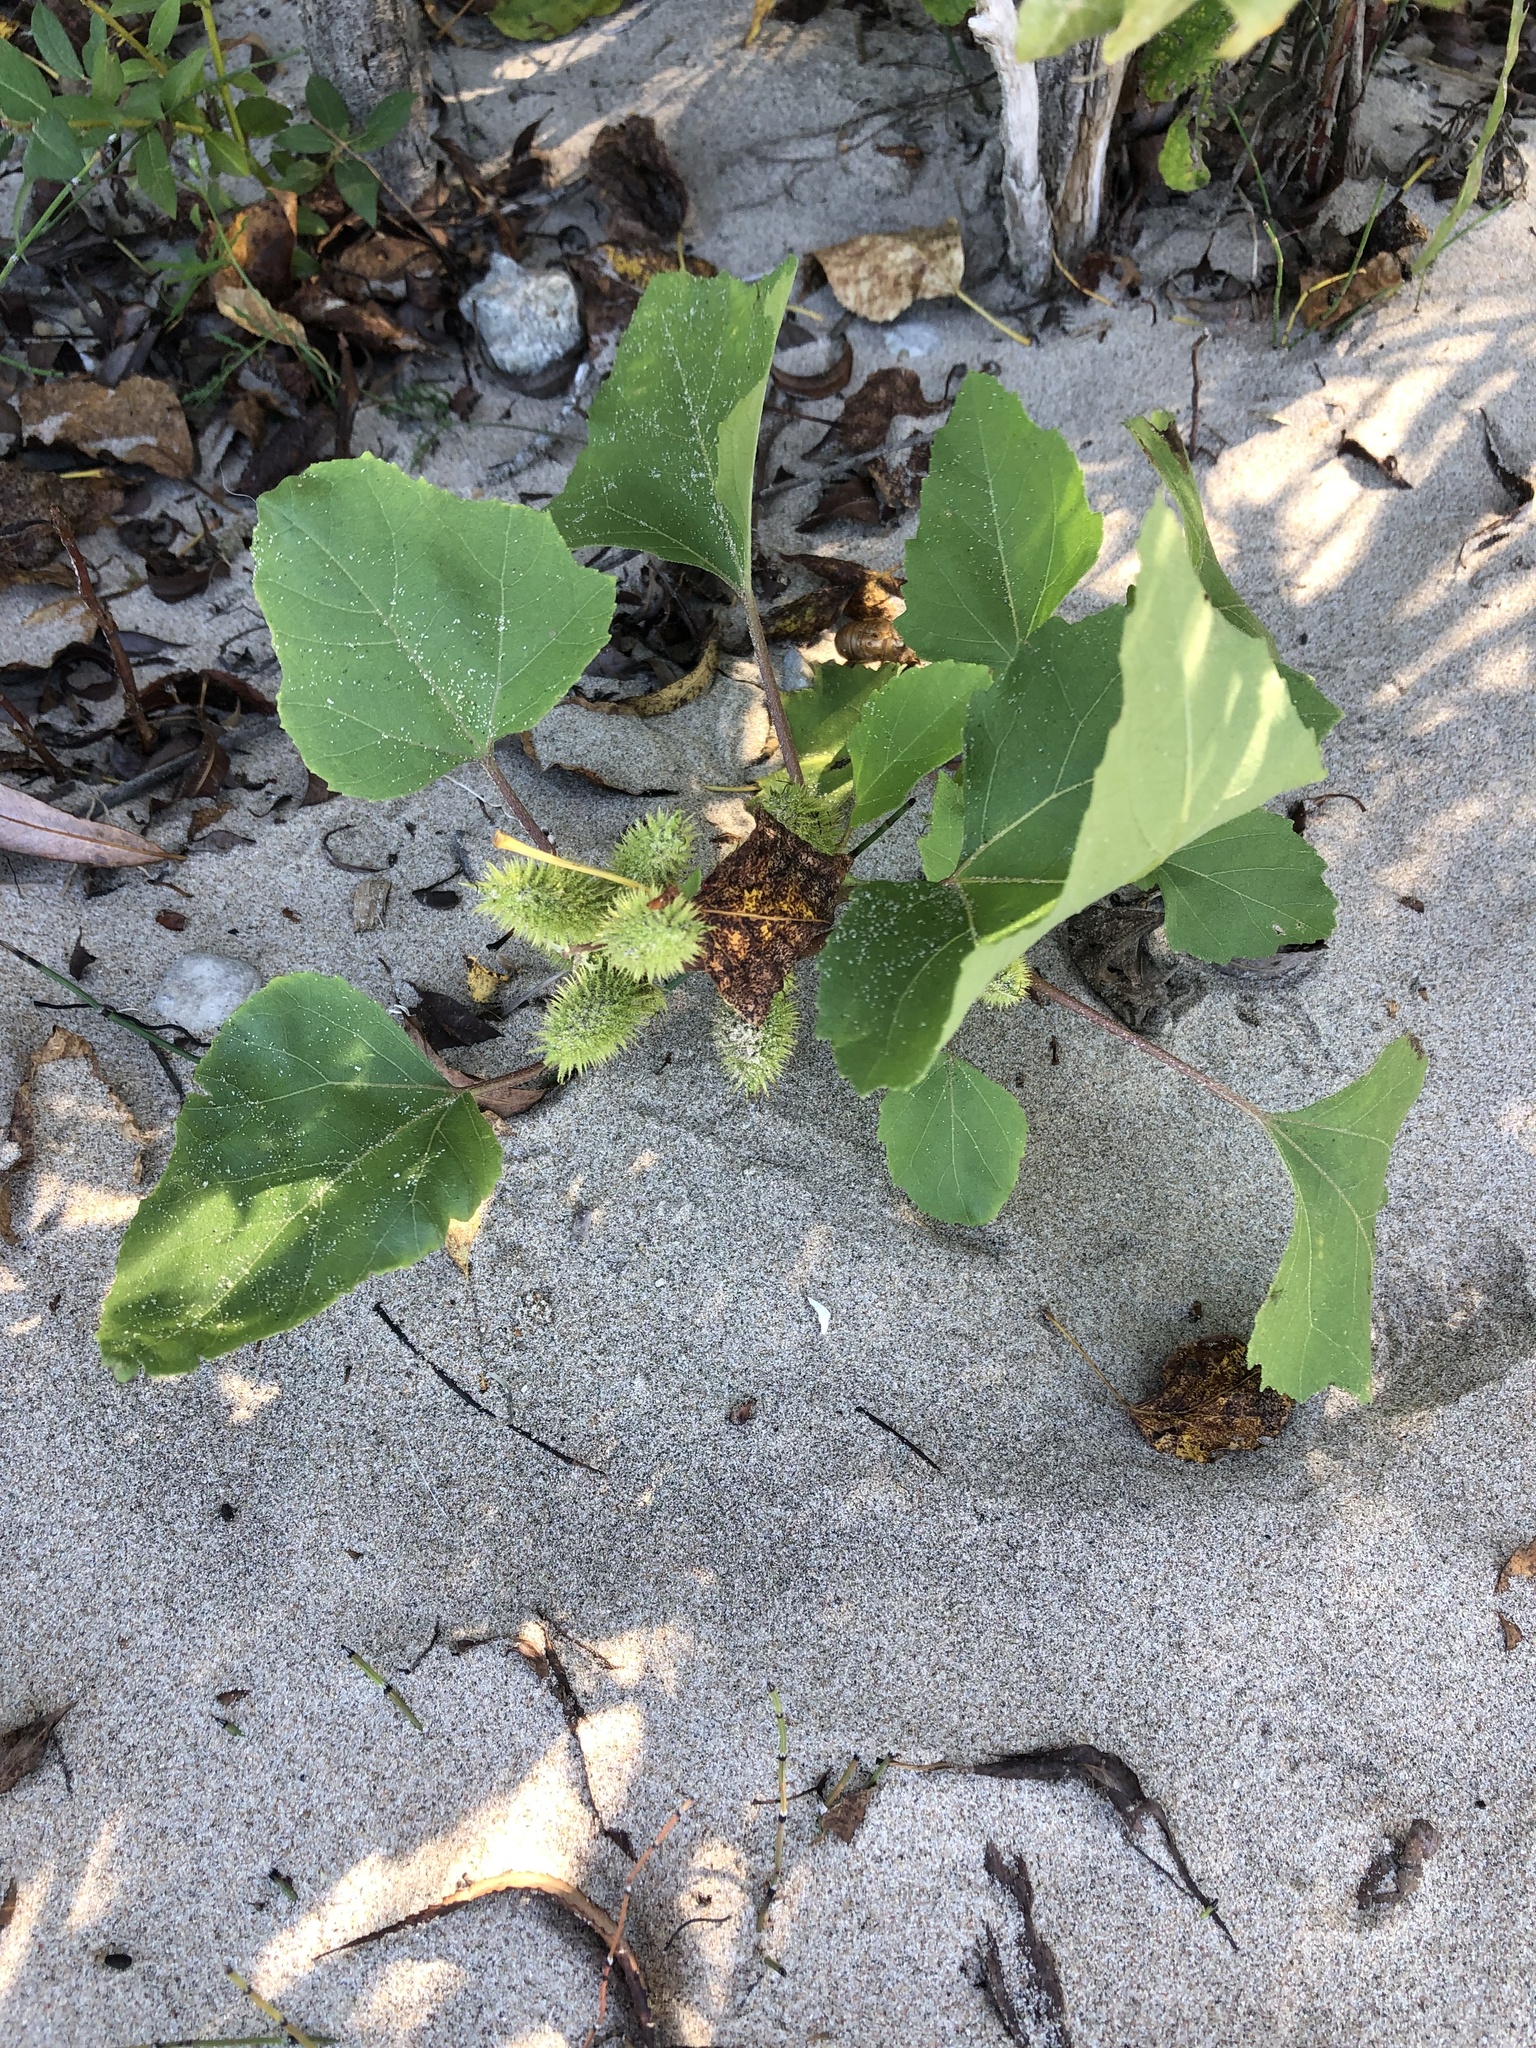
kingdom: Plantae
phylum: Tracheophyta
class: Magnoliopsida
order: Asterales
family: Asteraceae
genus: Xanthium
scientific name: Xanthium strumarium
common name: Rough cocklebur
